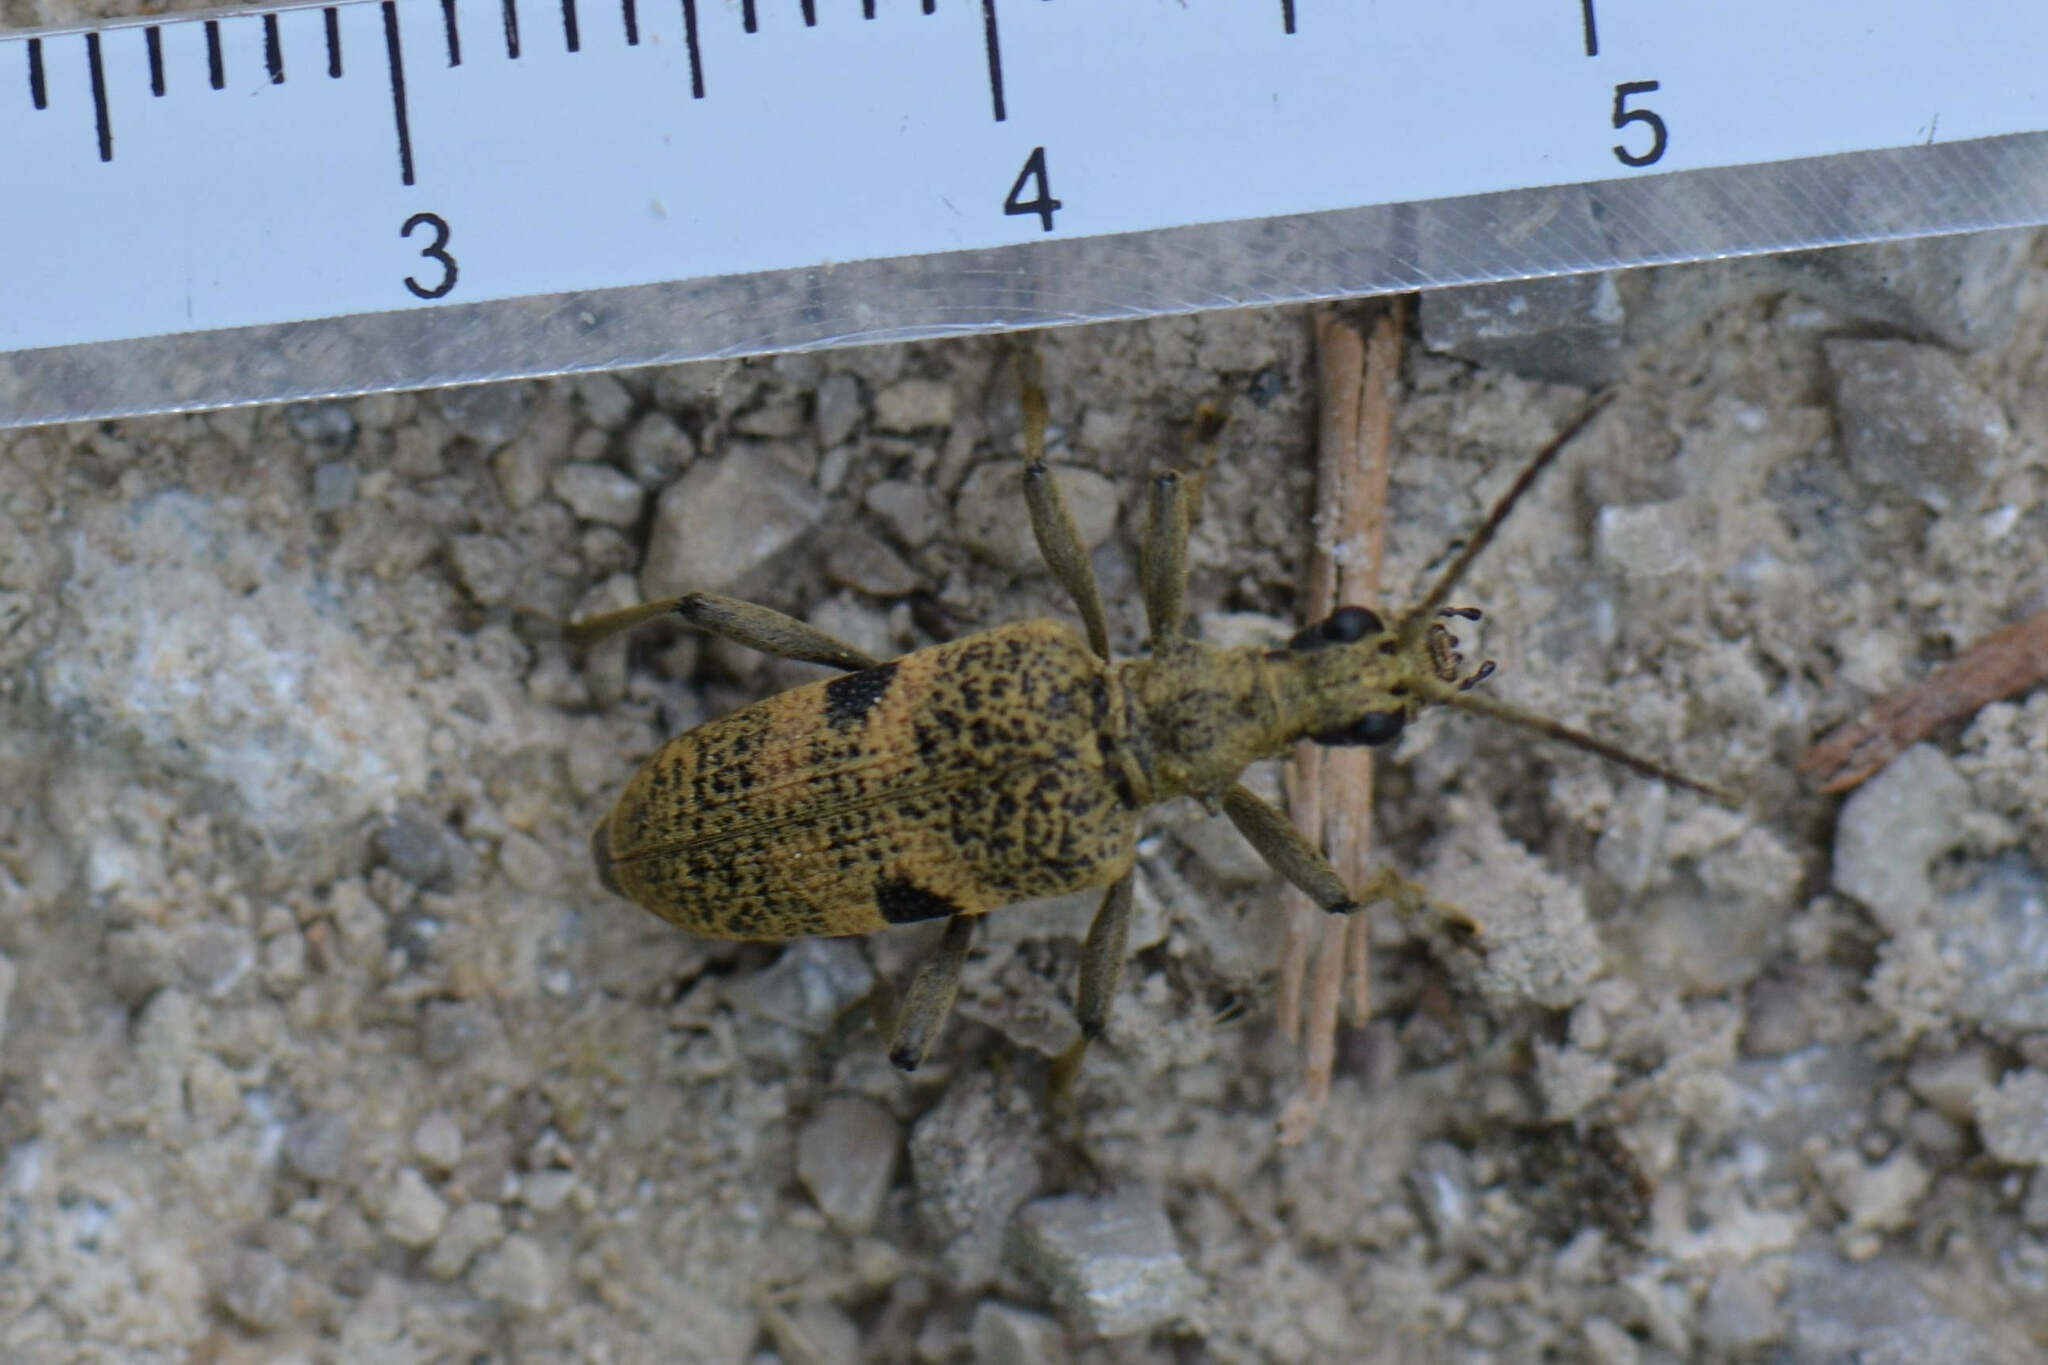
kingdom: Animalia
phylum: Arthropoda
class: Insecta
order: Coleoptera
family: Cerambycidae
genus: Rhagium
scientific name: Rhagium mordax
